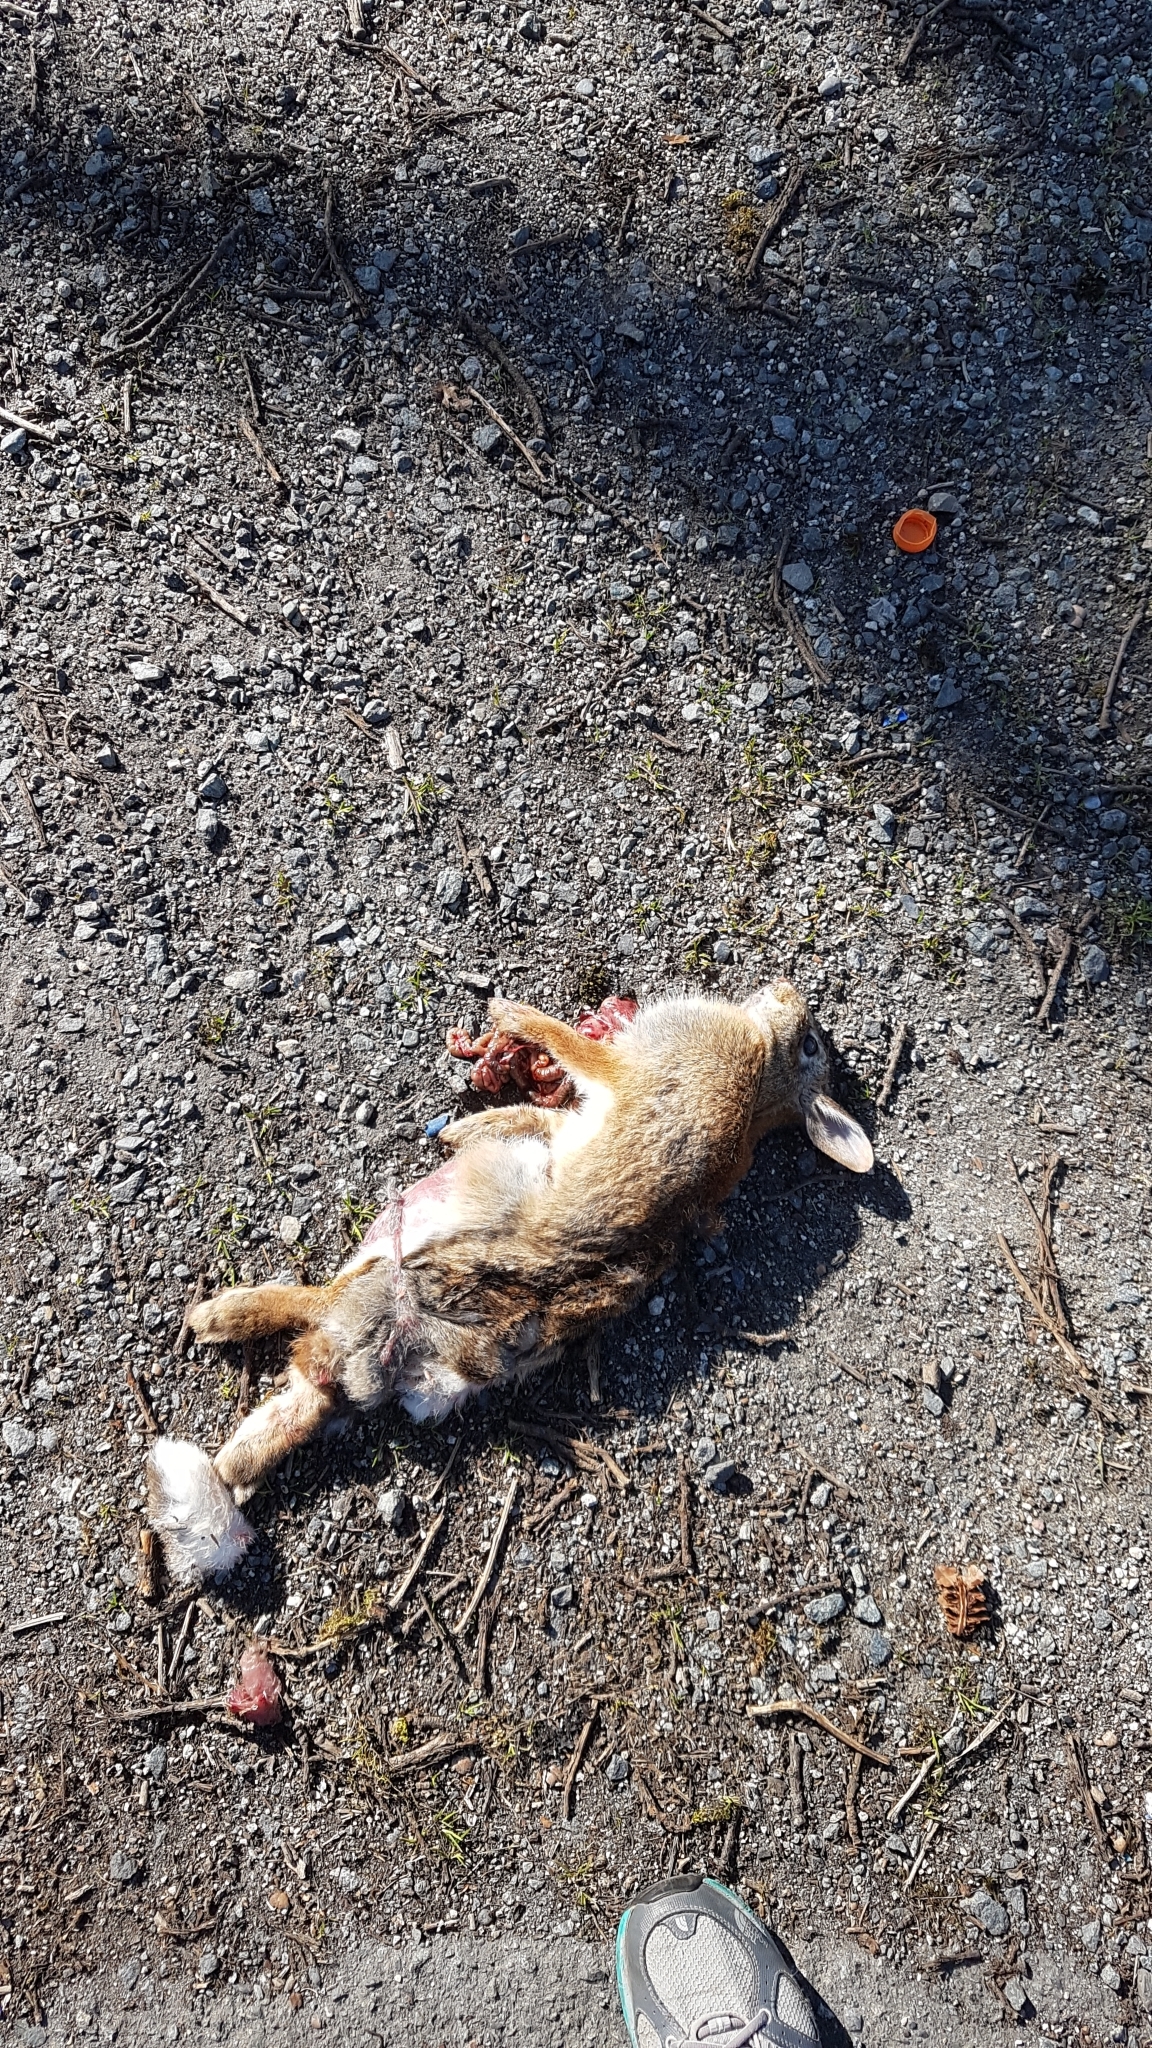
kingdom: Animalia
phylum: Chordata
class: Mammalia
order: Lagomorpha
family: Leporidae
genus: Sylvilagus
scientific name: Sylvilagus floridanus
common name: Eastern cottontail
